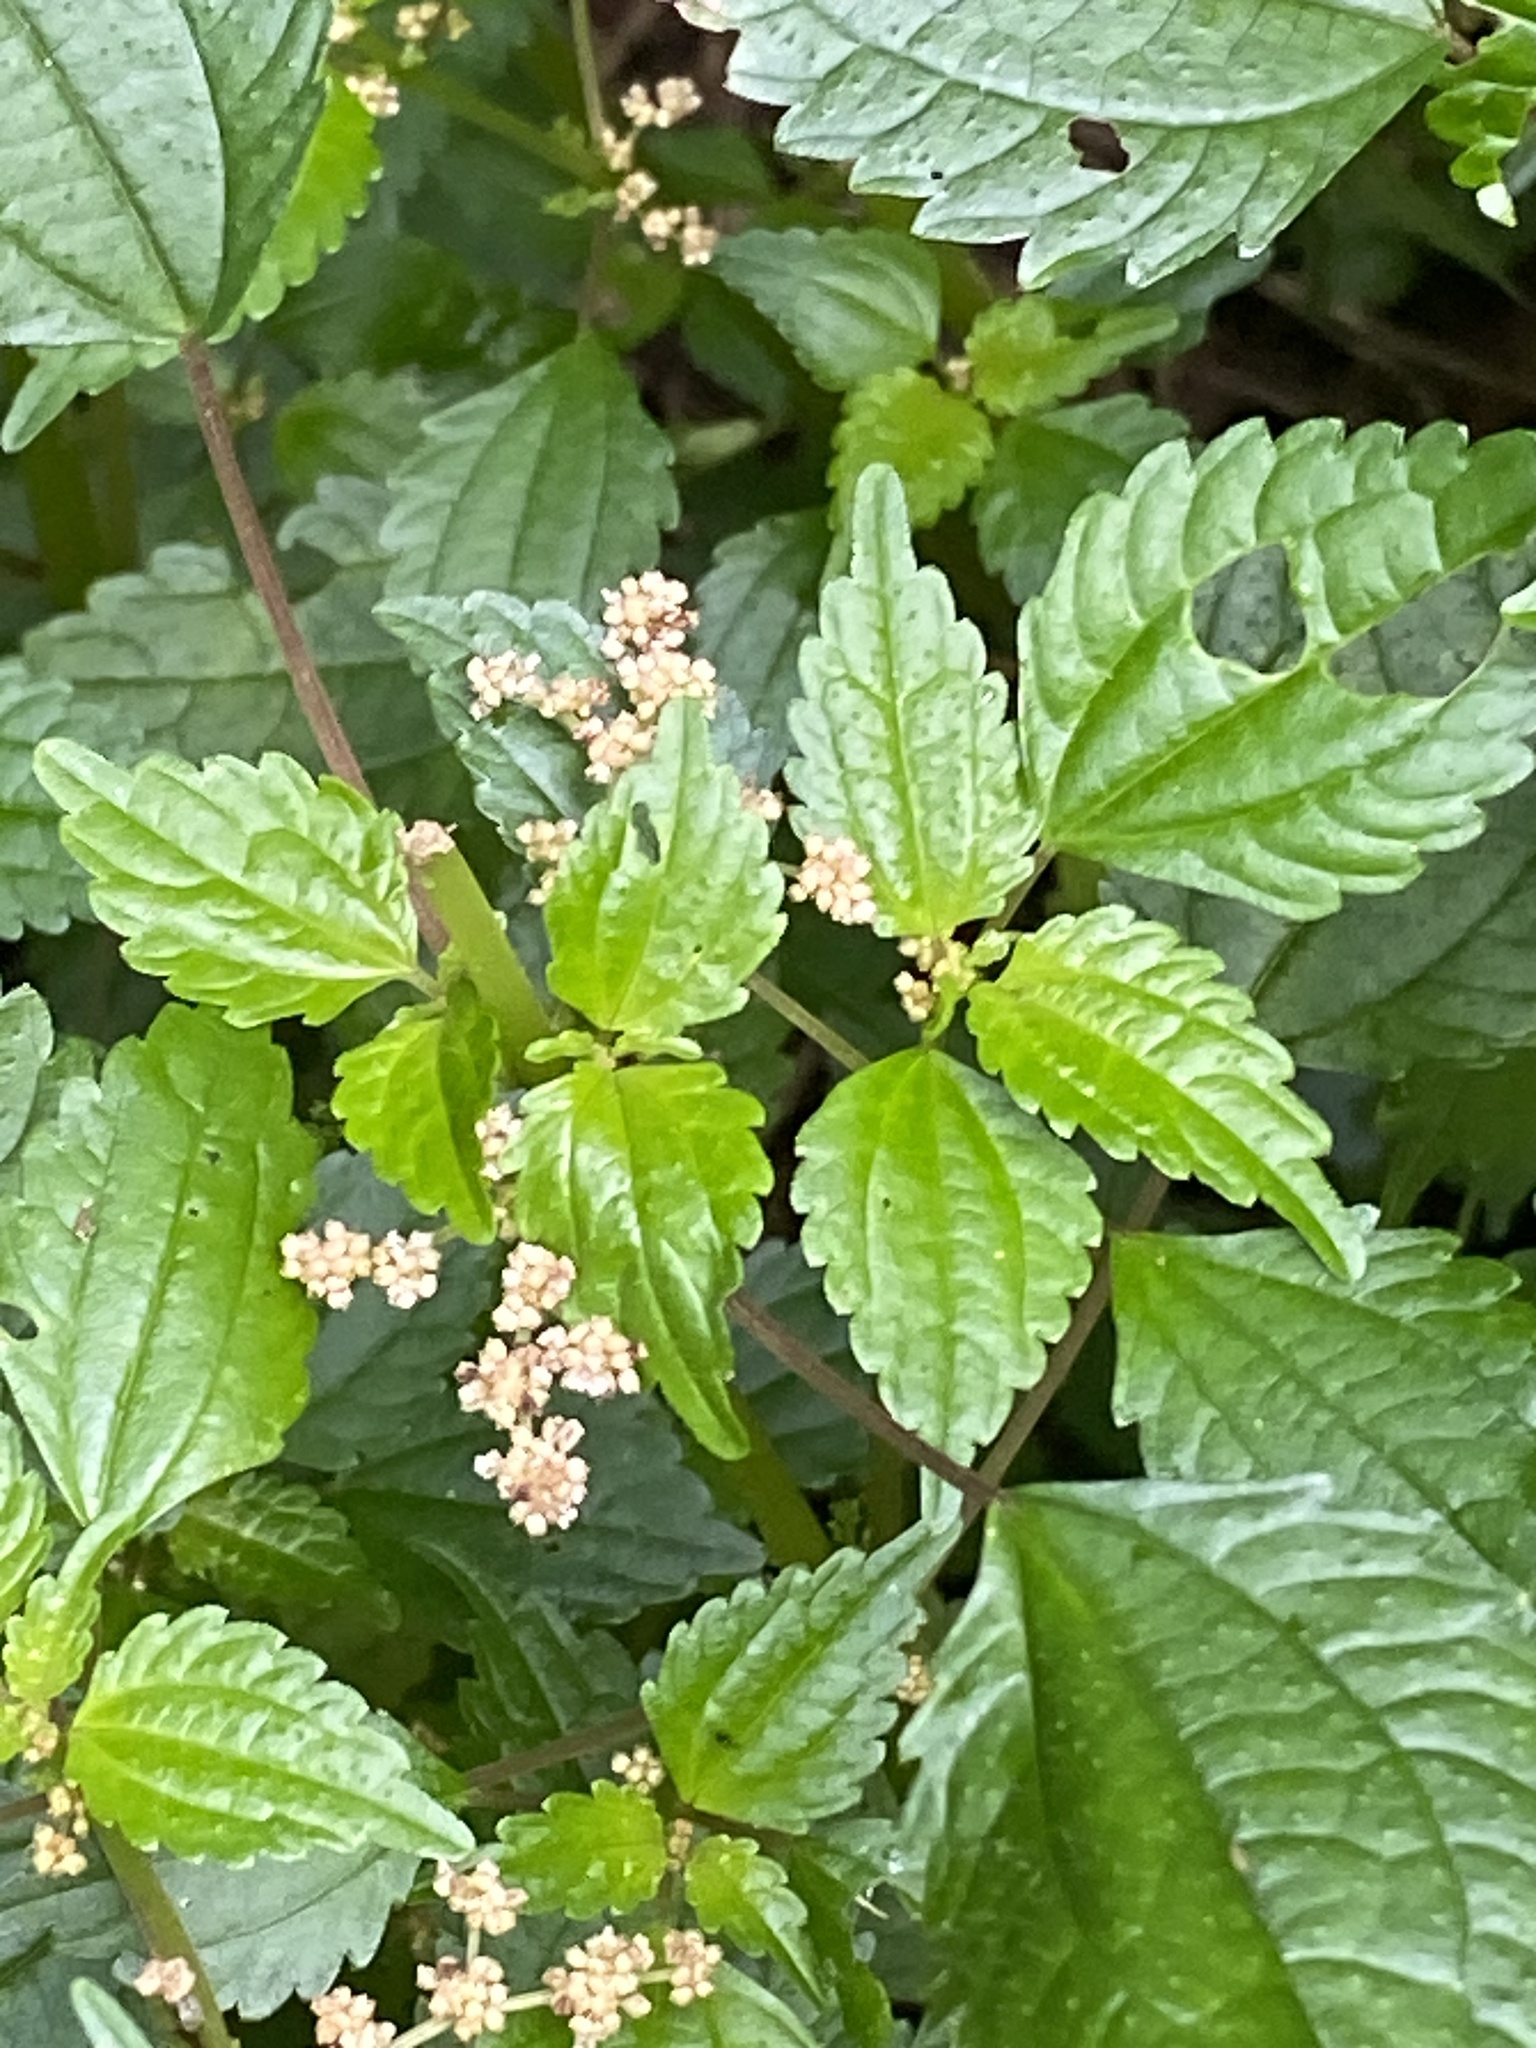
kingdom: Plantae
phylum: Tracheophyta
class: Magnoliopsida
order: Rosales
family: Urticaceae
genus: Pilea
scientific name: Pilea pumila
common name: Clearweed
